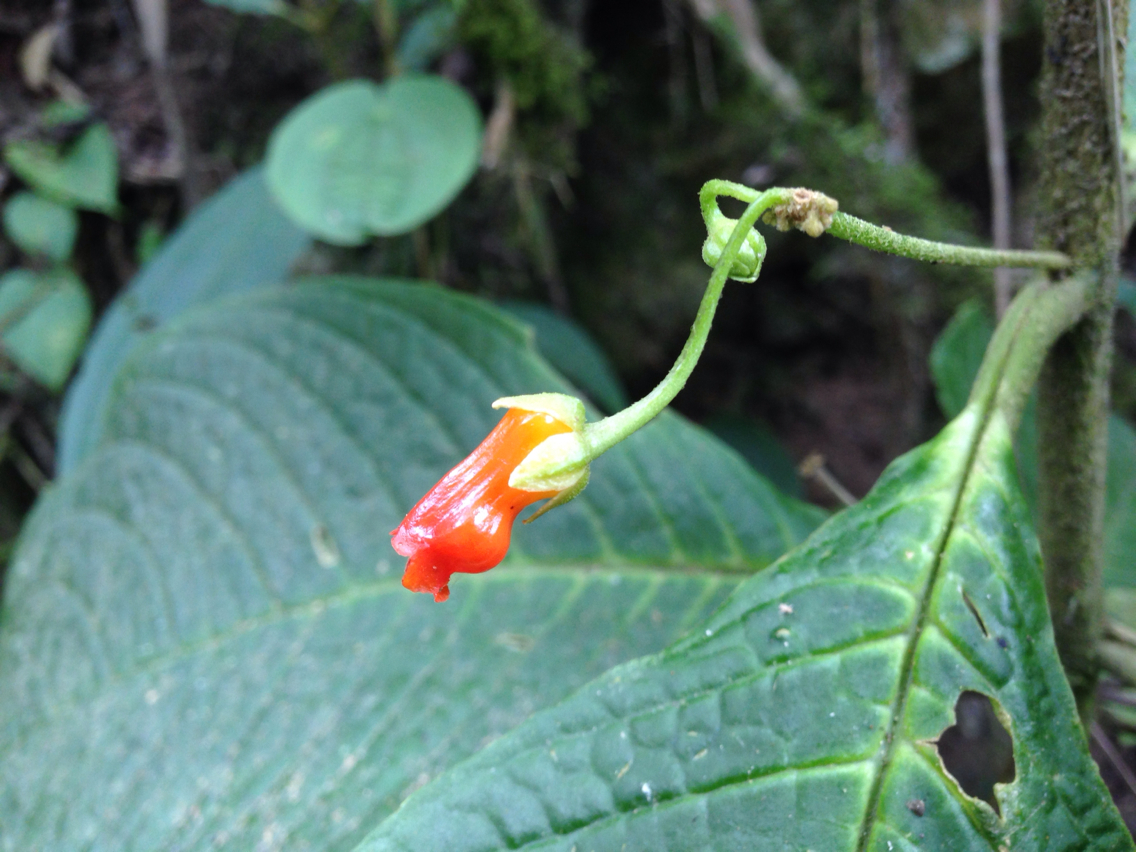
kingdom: Plantae
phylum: Tracheophyta
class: Magnoliopsida
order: Lamiales
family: Gesneriaceae
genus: Besleria
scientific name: Besleria solanoides
